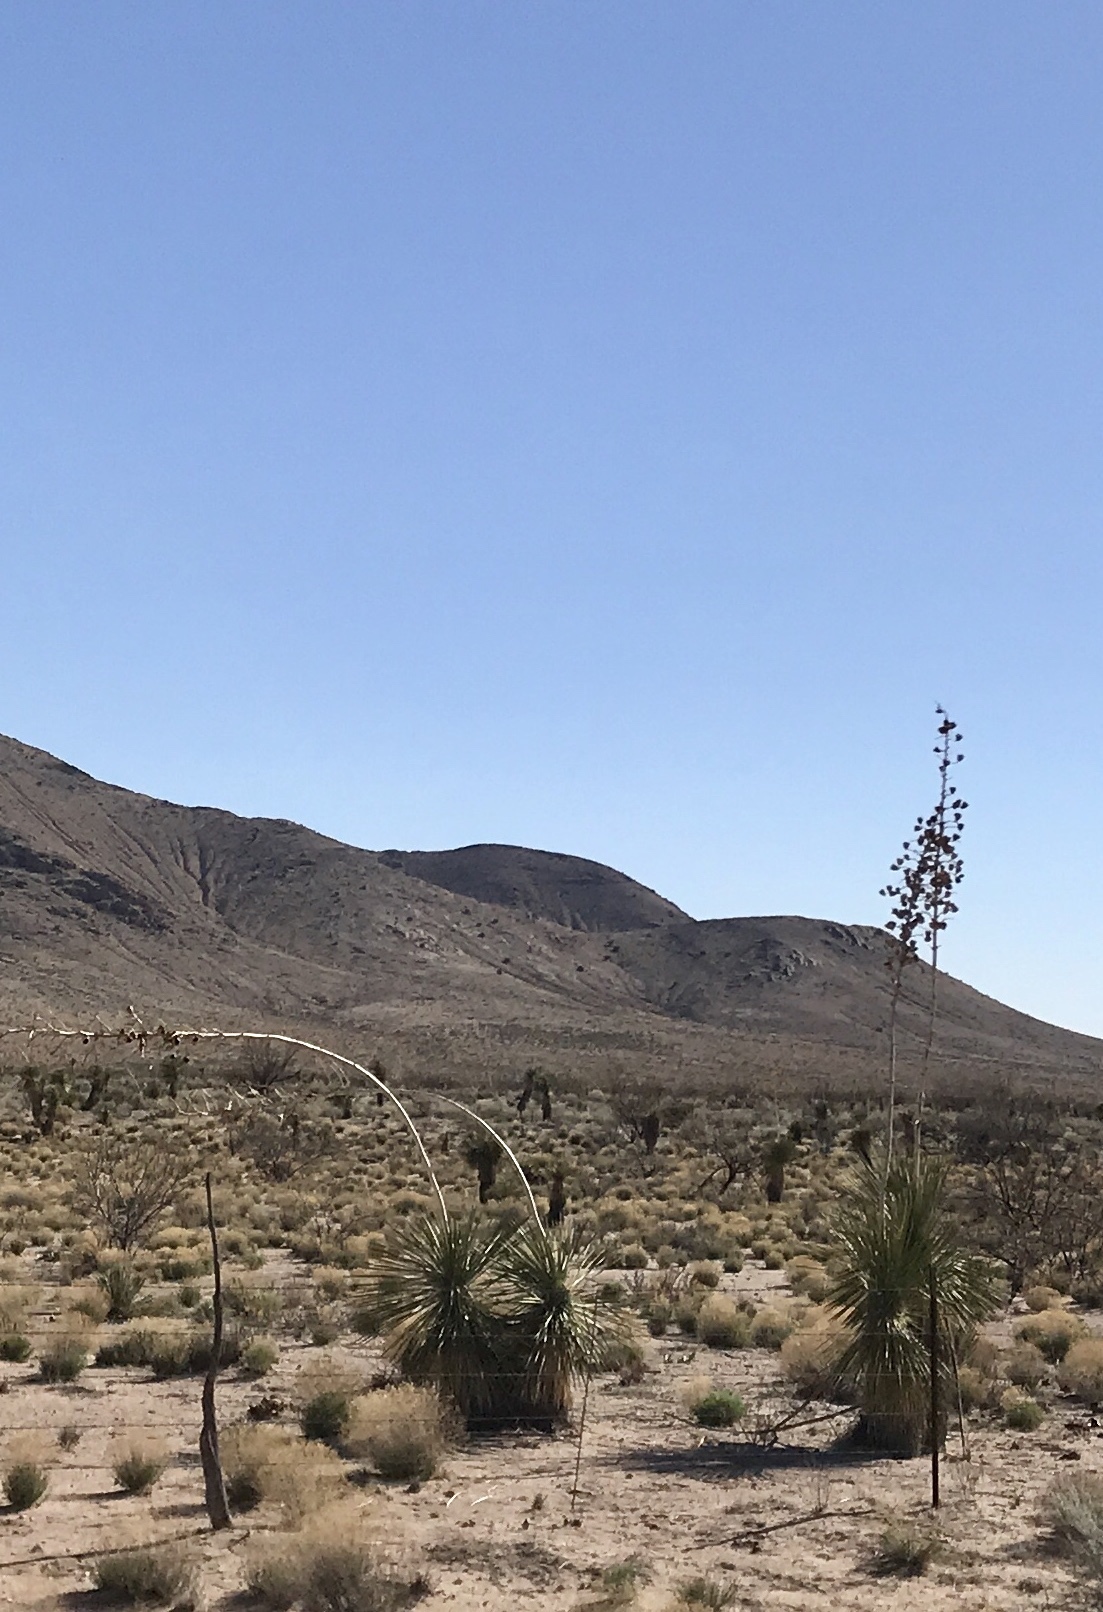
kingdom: Plantae
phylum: Tracheophyta
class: Liliopsida
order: Asparagales
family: Asparagaceae
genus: Yucca
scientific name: Yucca elata
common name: Palmella
